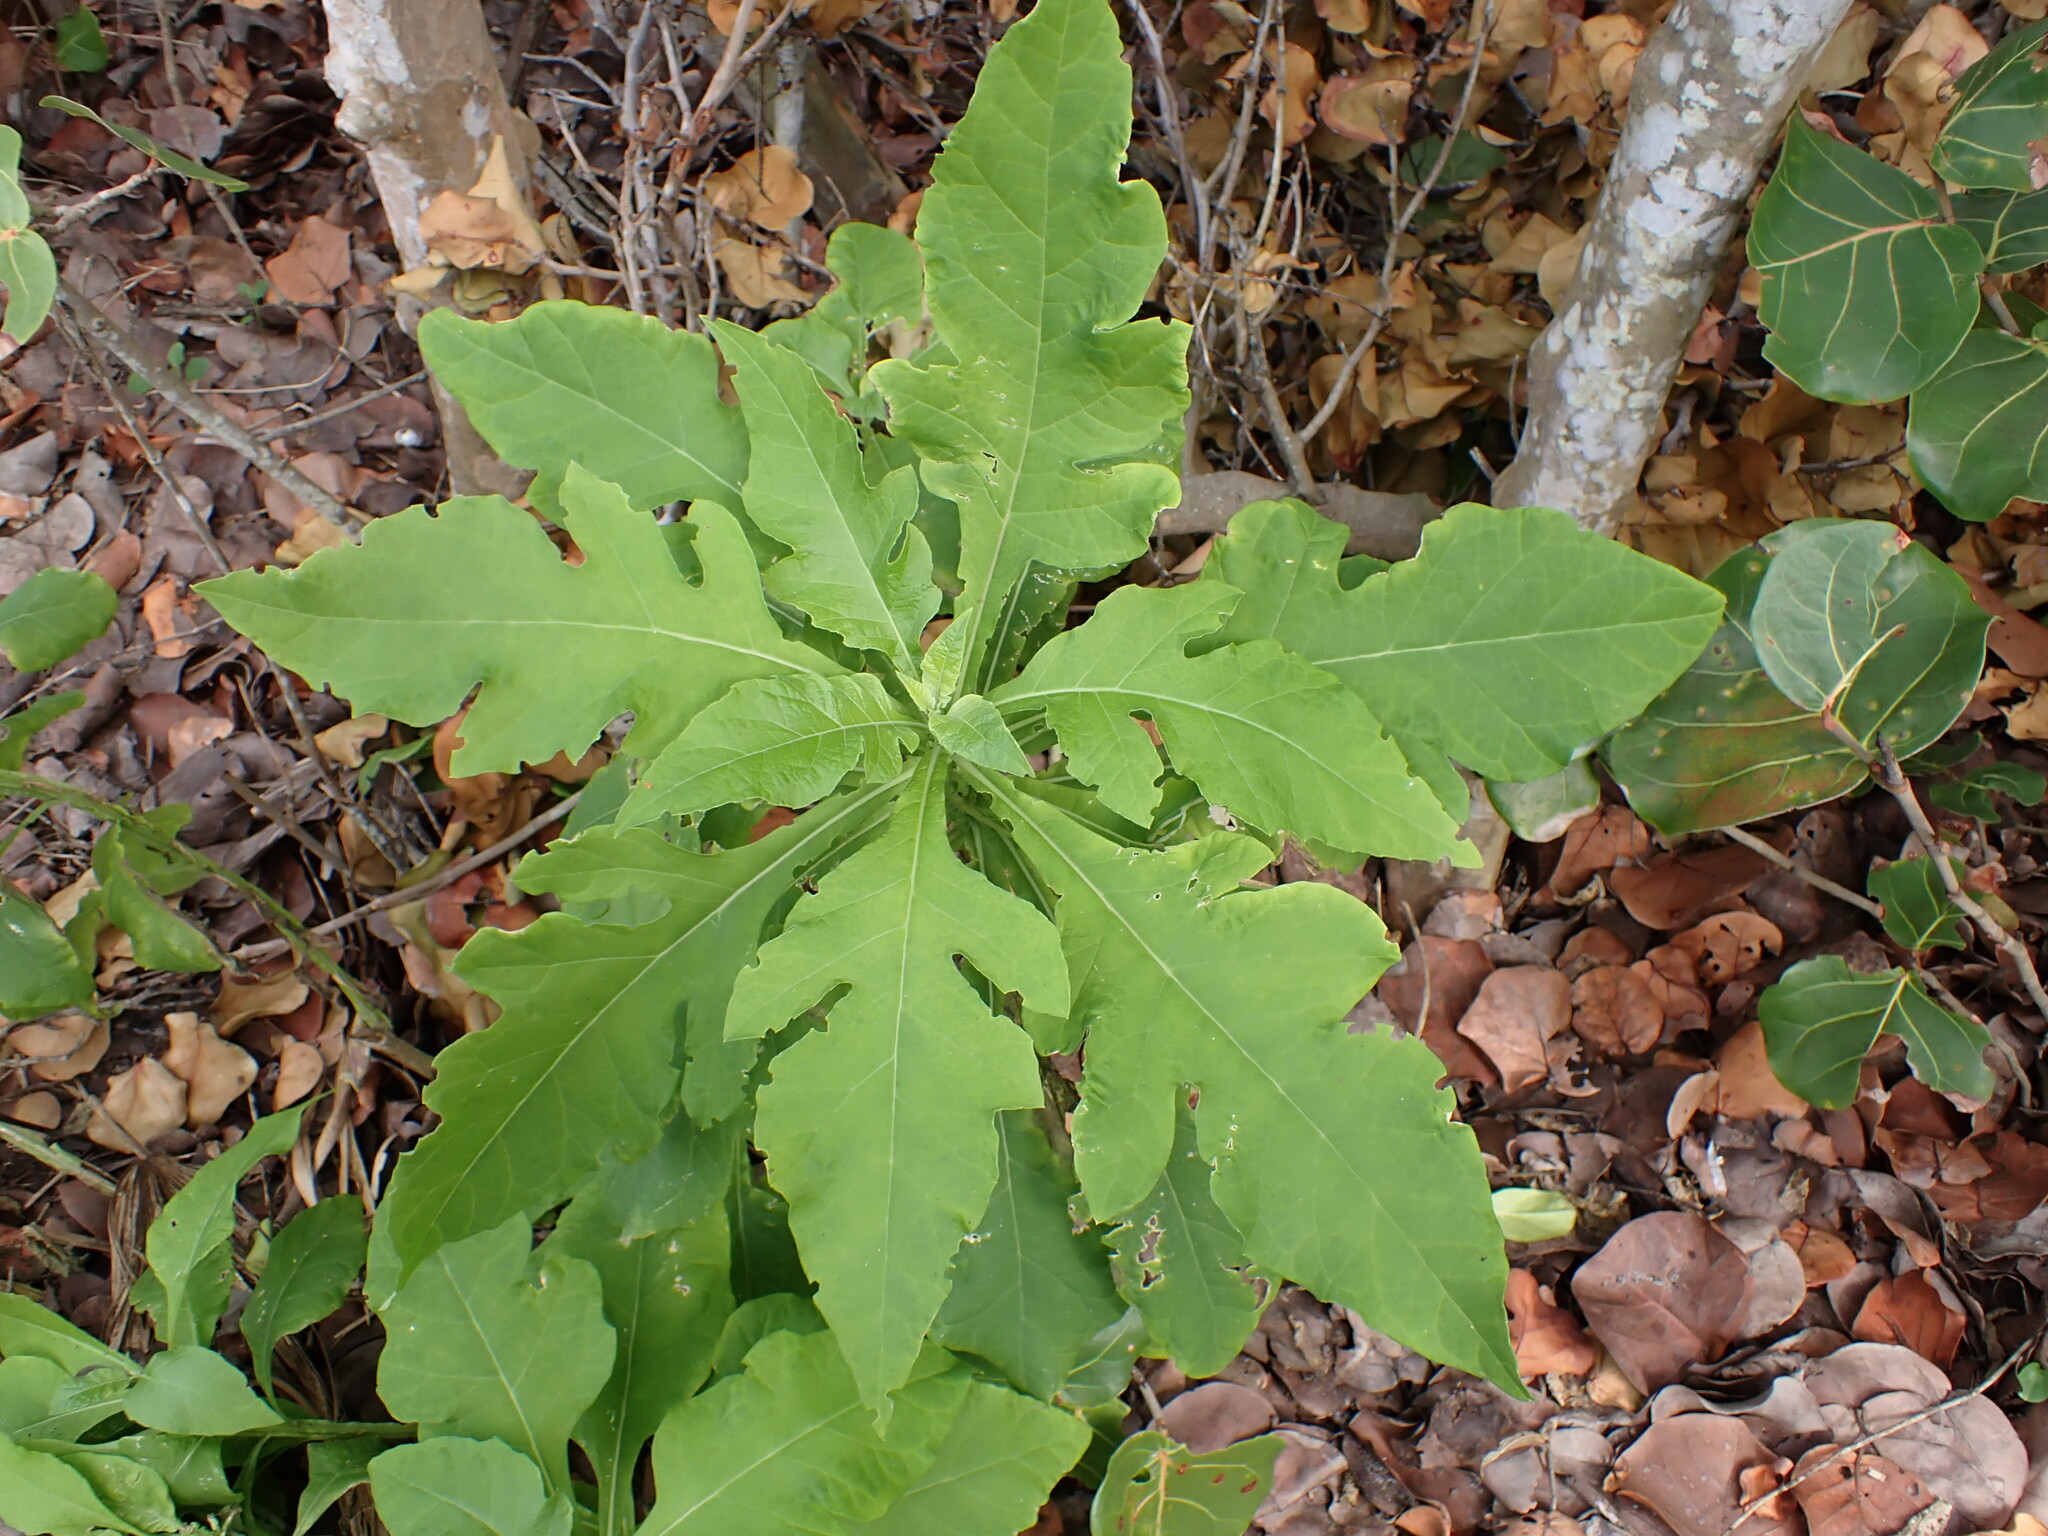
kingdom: Plantae
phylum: Tracheophyta
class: Magnoliopsida
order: Asterales
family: Asteraceae
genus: Verbesina
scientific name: Verbesina virginica
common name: Frostweed
